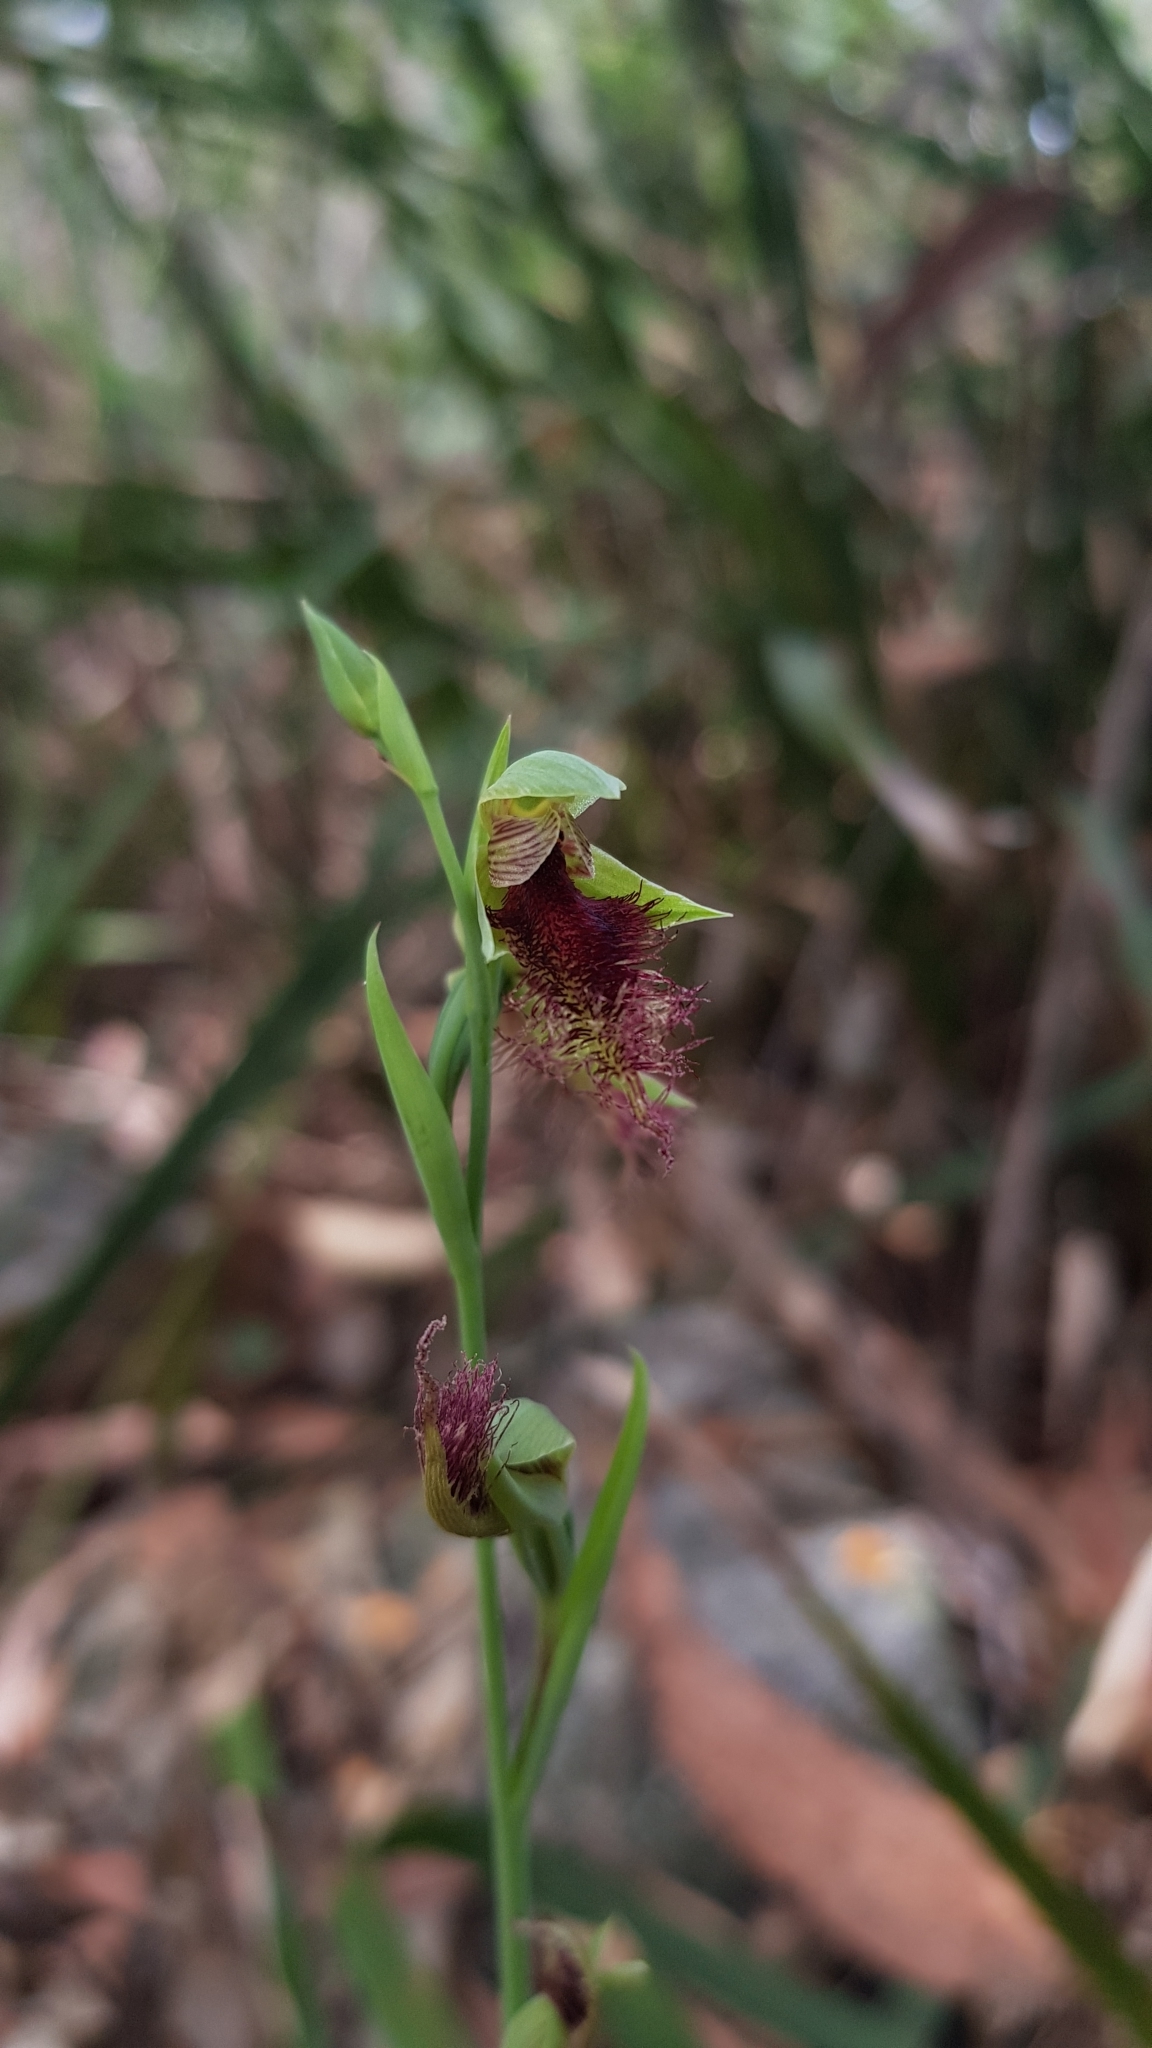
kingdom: Plantae
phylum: Tracheophyta
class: Liliopsida
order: Asparagales
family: Orchidaceae
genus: Calochilus
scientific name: Calochilus robertsonii
